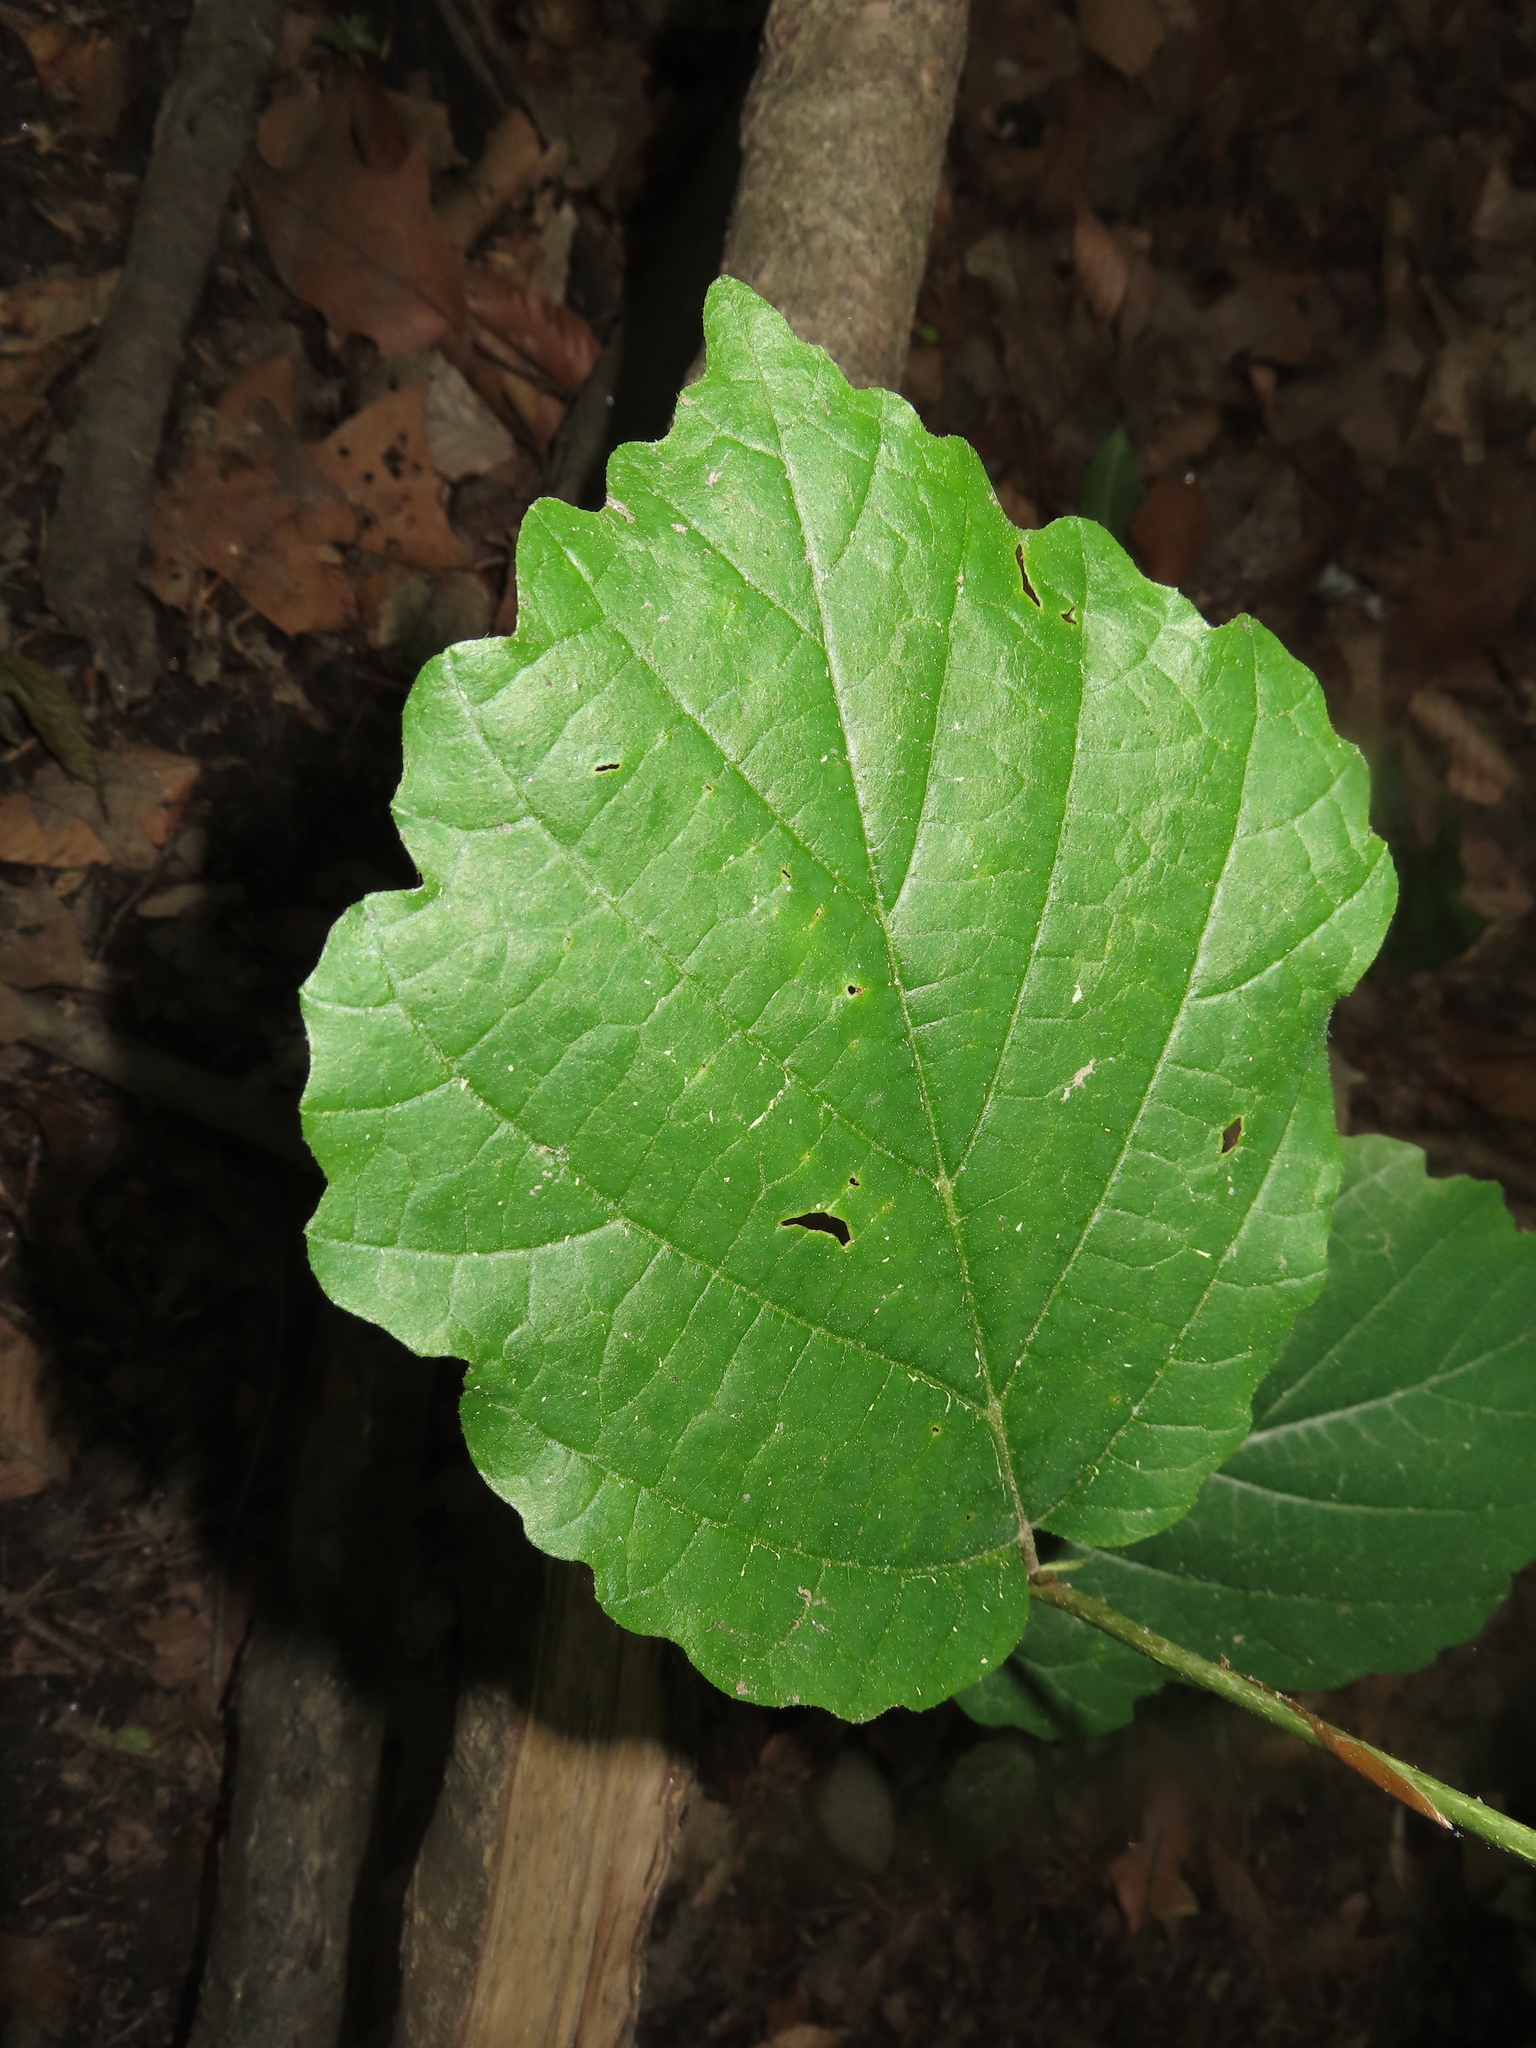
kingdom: Plantae
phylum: Tracheophyta
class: Magnoliopsida
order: Saxifragales
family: Hamamelidaceae
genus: Hamamelis
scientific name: Hamamelis virginiana
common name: Witch-hazel
